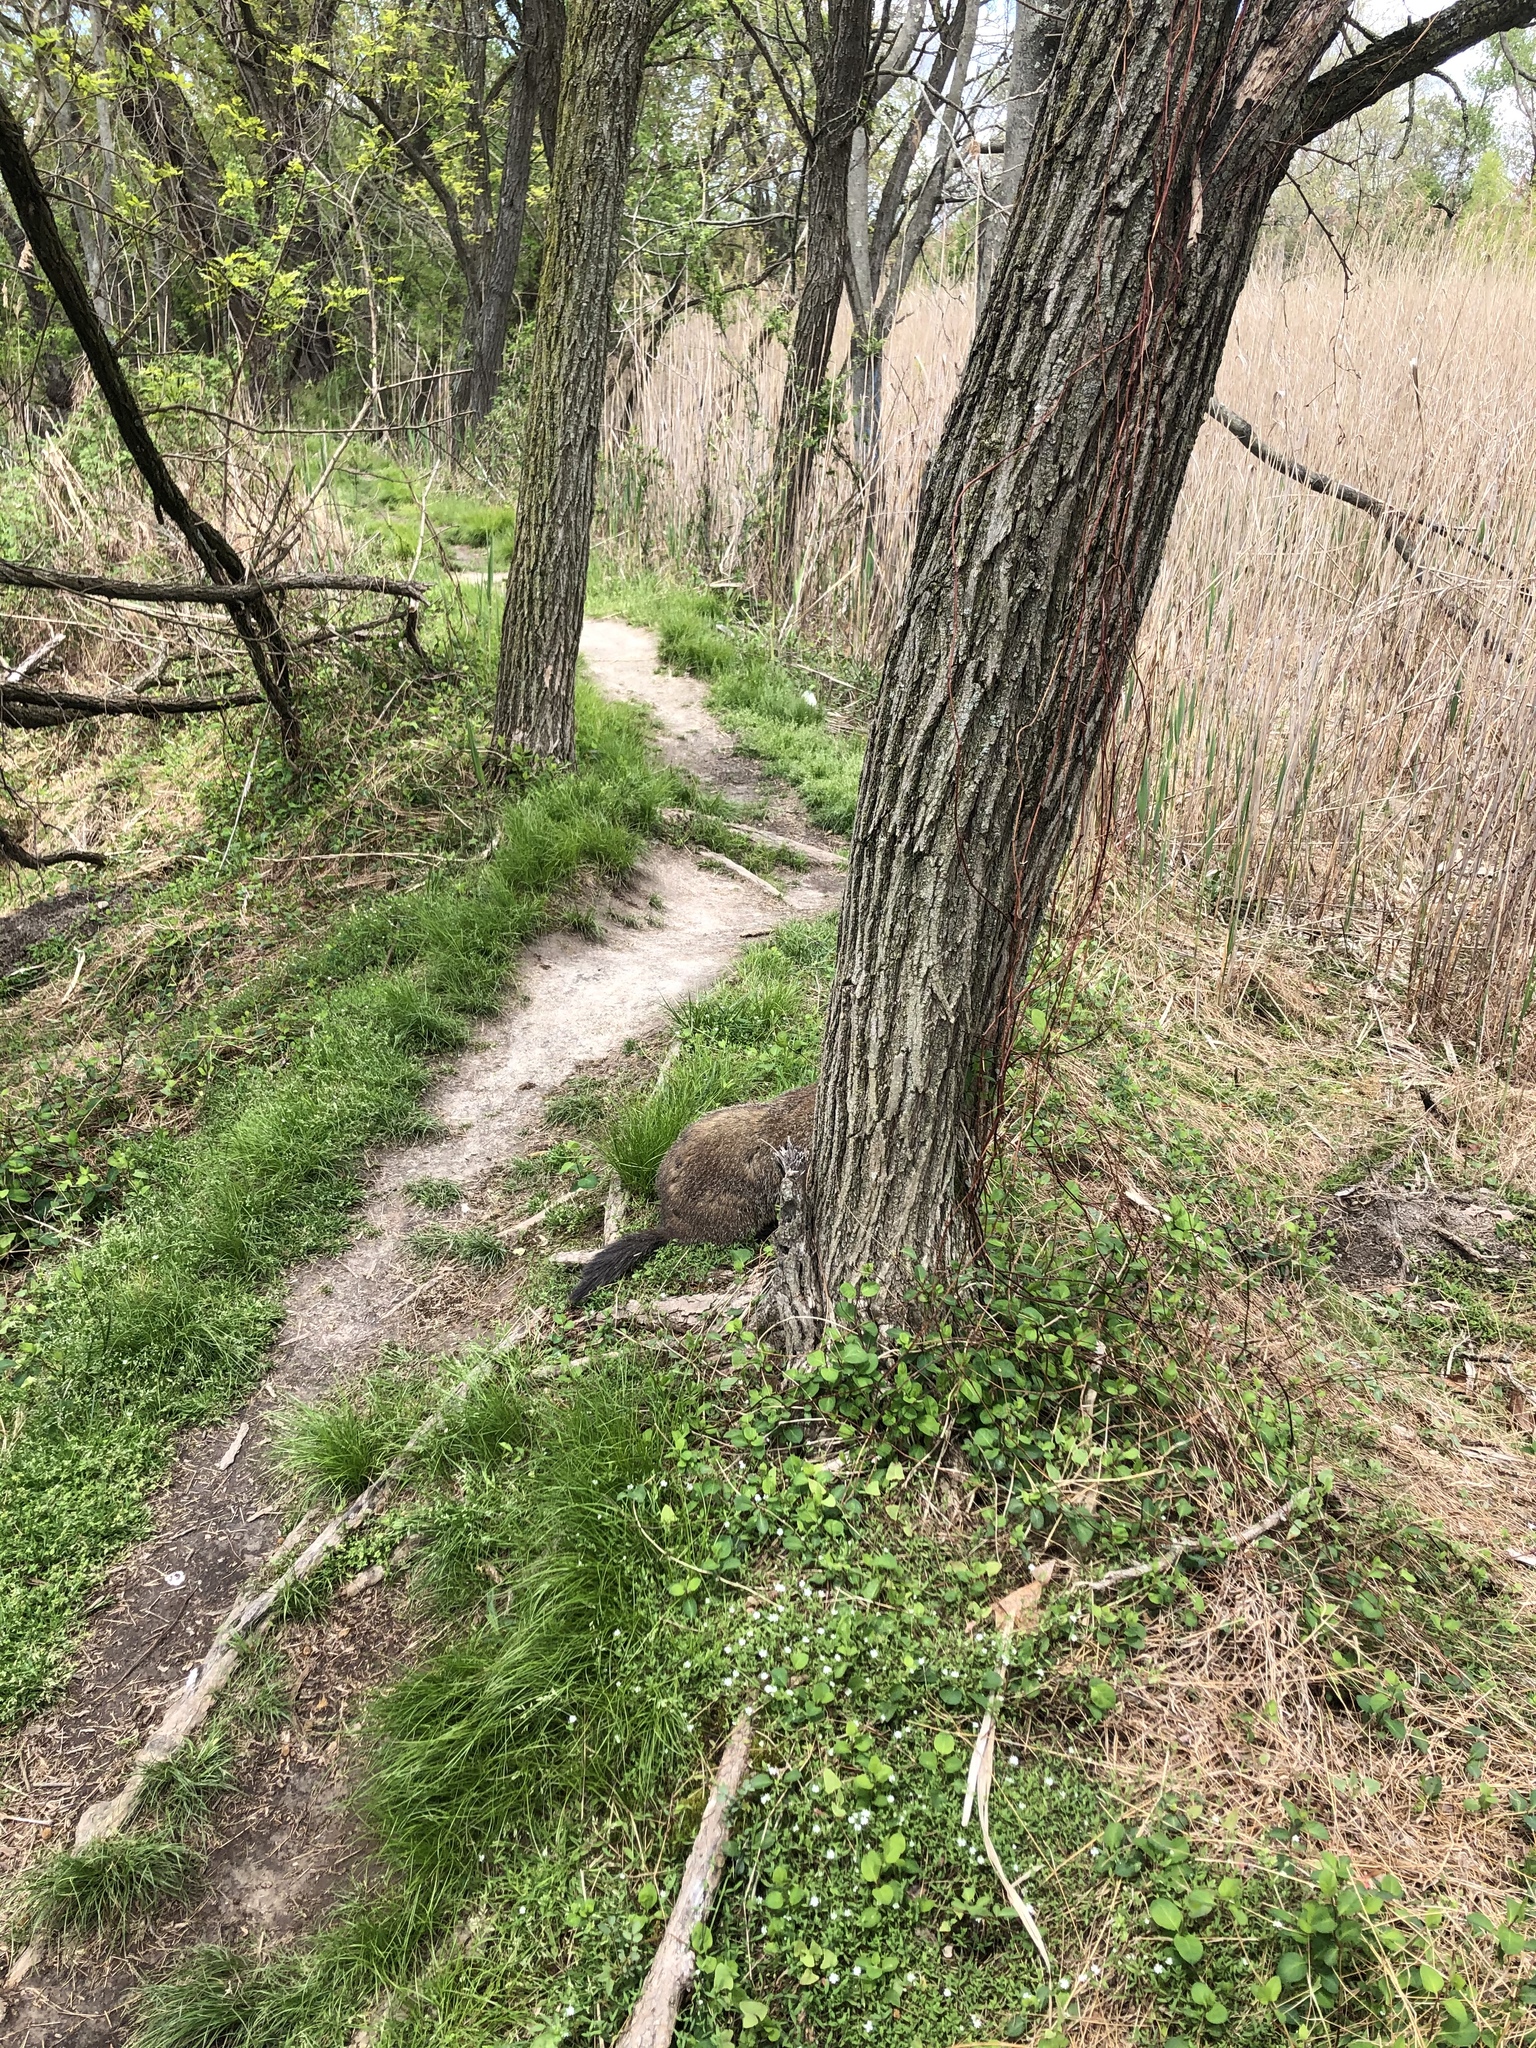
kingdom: Animalia
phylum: Chordata
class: Mammalia
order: Rodentia
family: Sciuridae
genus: Marmota
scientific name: Marmota monax
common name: Groundhog
